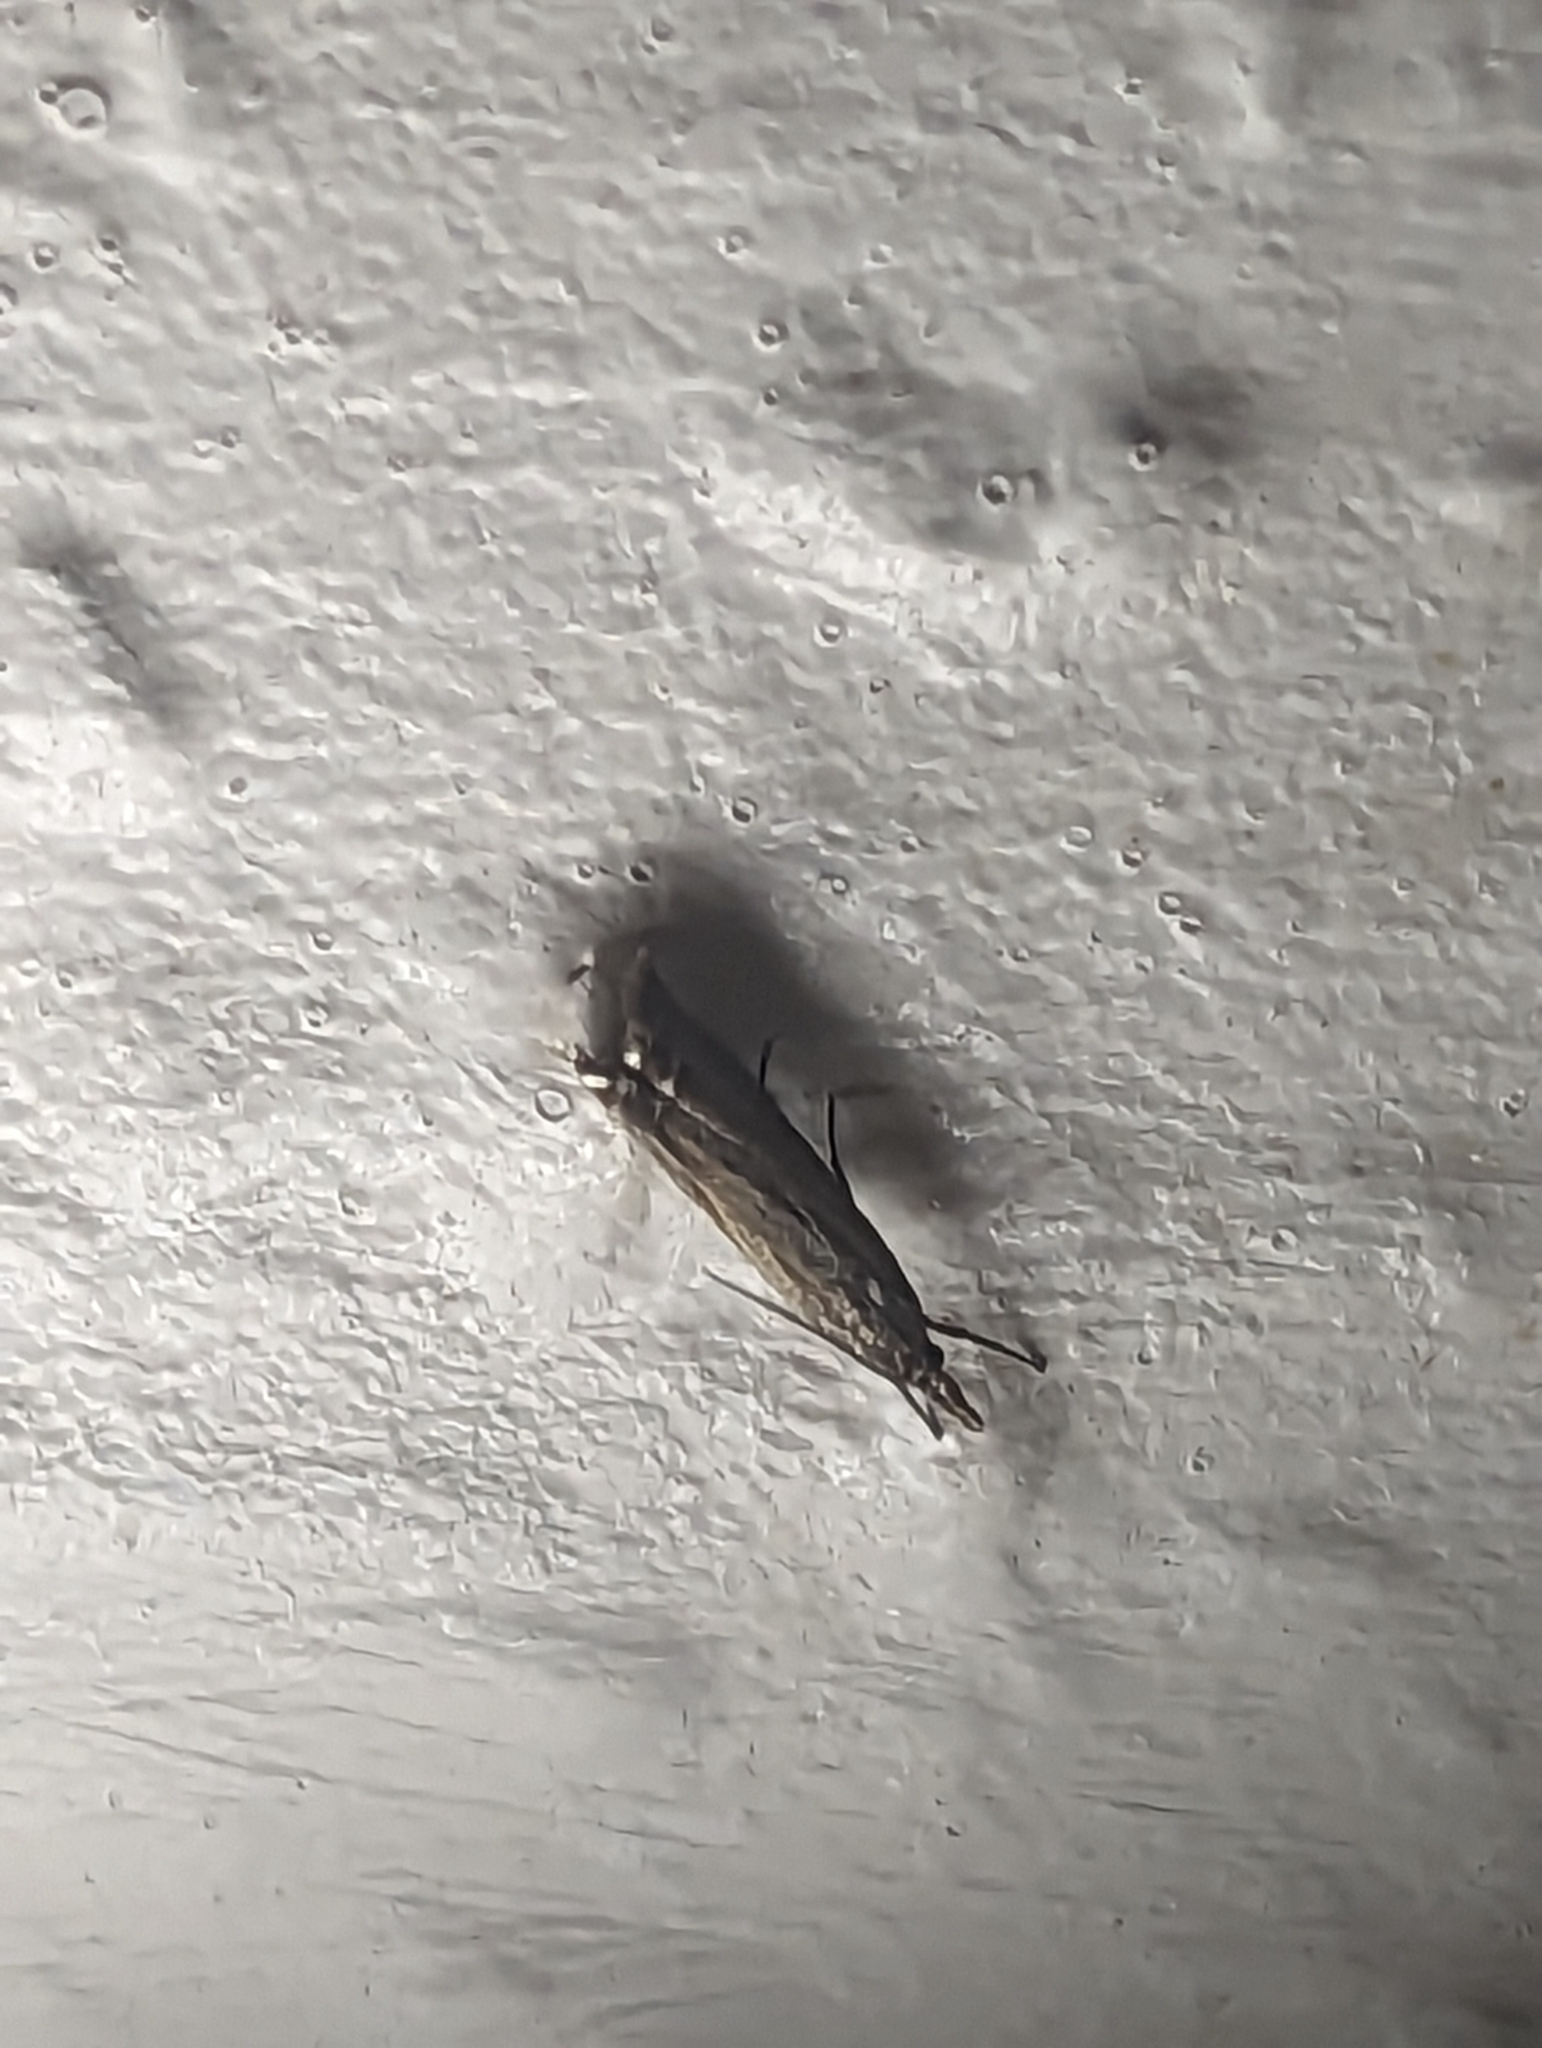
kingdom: Animalia
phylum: Arthropoda
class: Insecta
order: Lepidoptera
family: Crambidae
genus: Chrysoteuchia
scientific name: Chrysoteuchia culmella
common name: Garden grass-veneer
